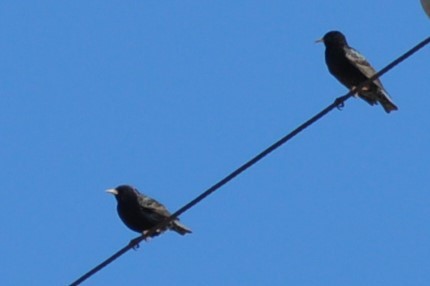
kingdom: Animalia
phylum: Chordata
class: Aves
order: Passeriformes
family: Sturnidae
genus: Sturnus
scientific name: Sturnus vulgaris
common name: Common starling
